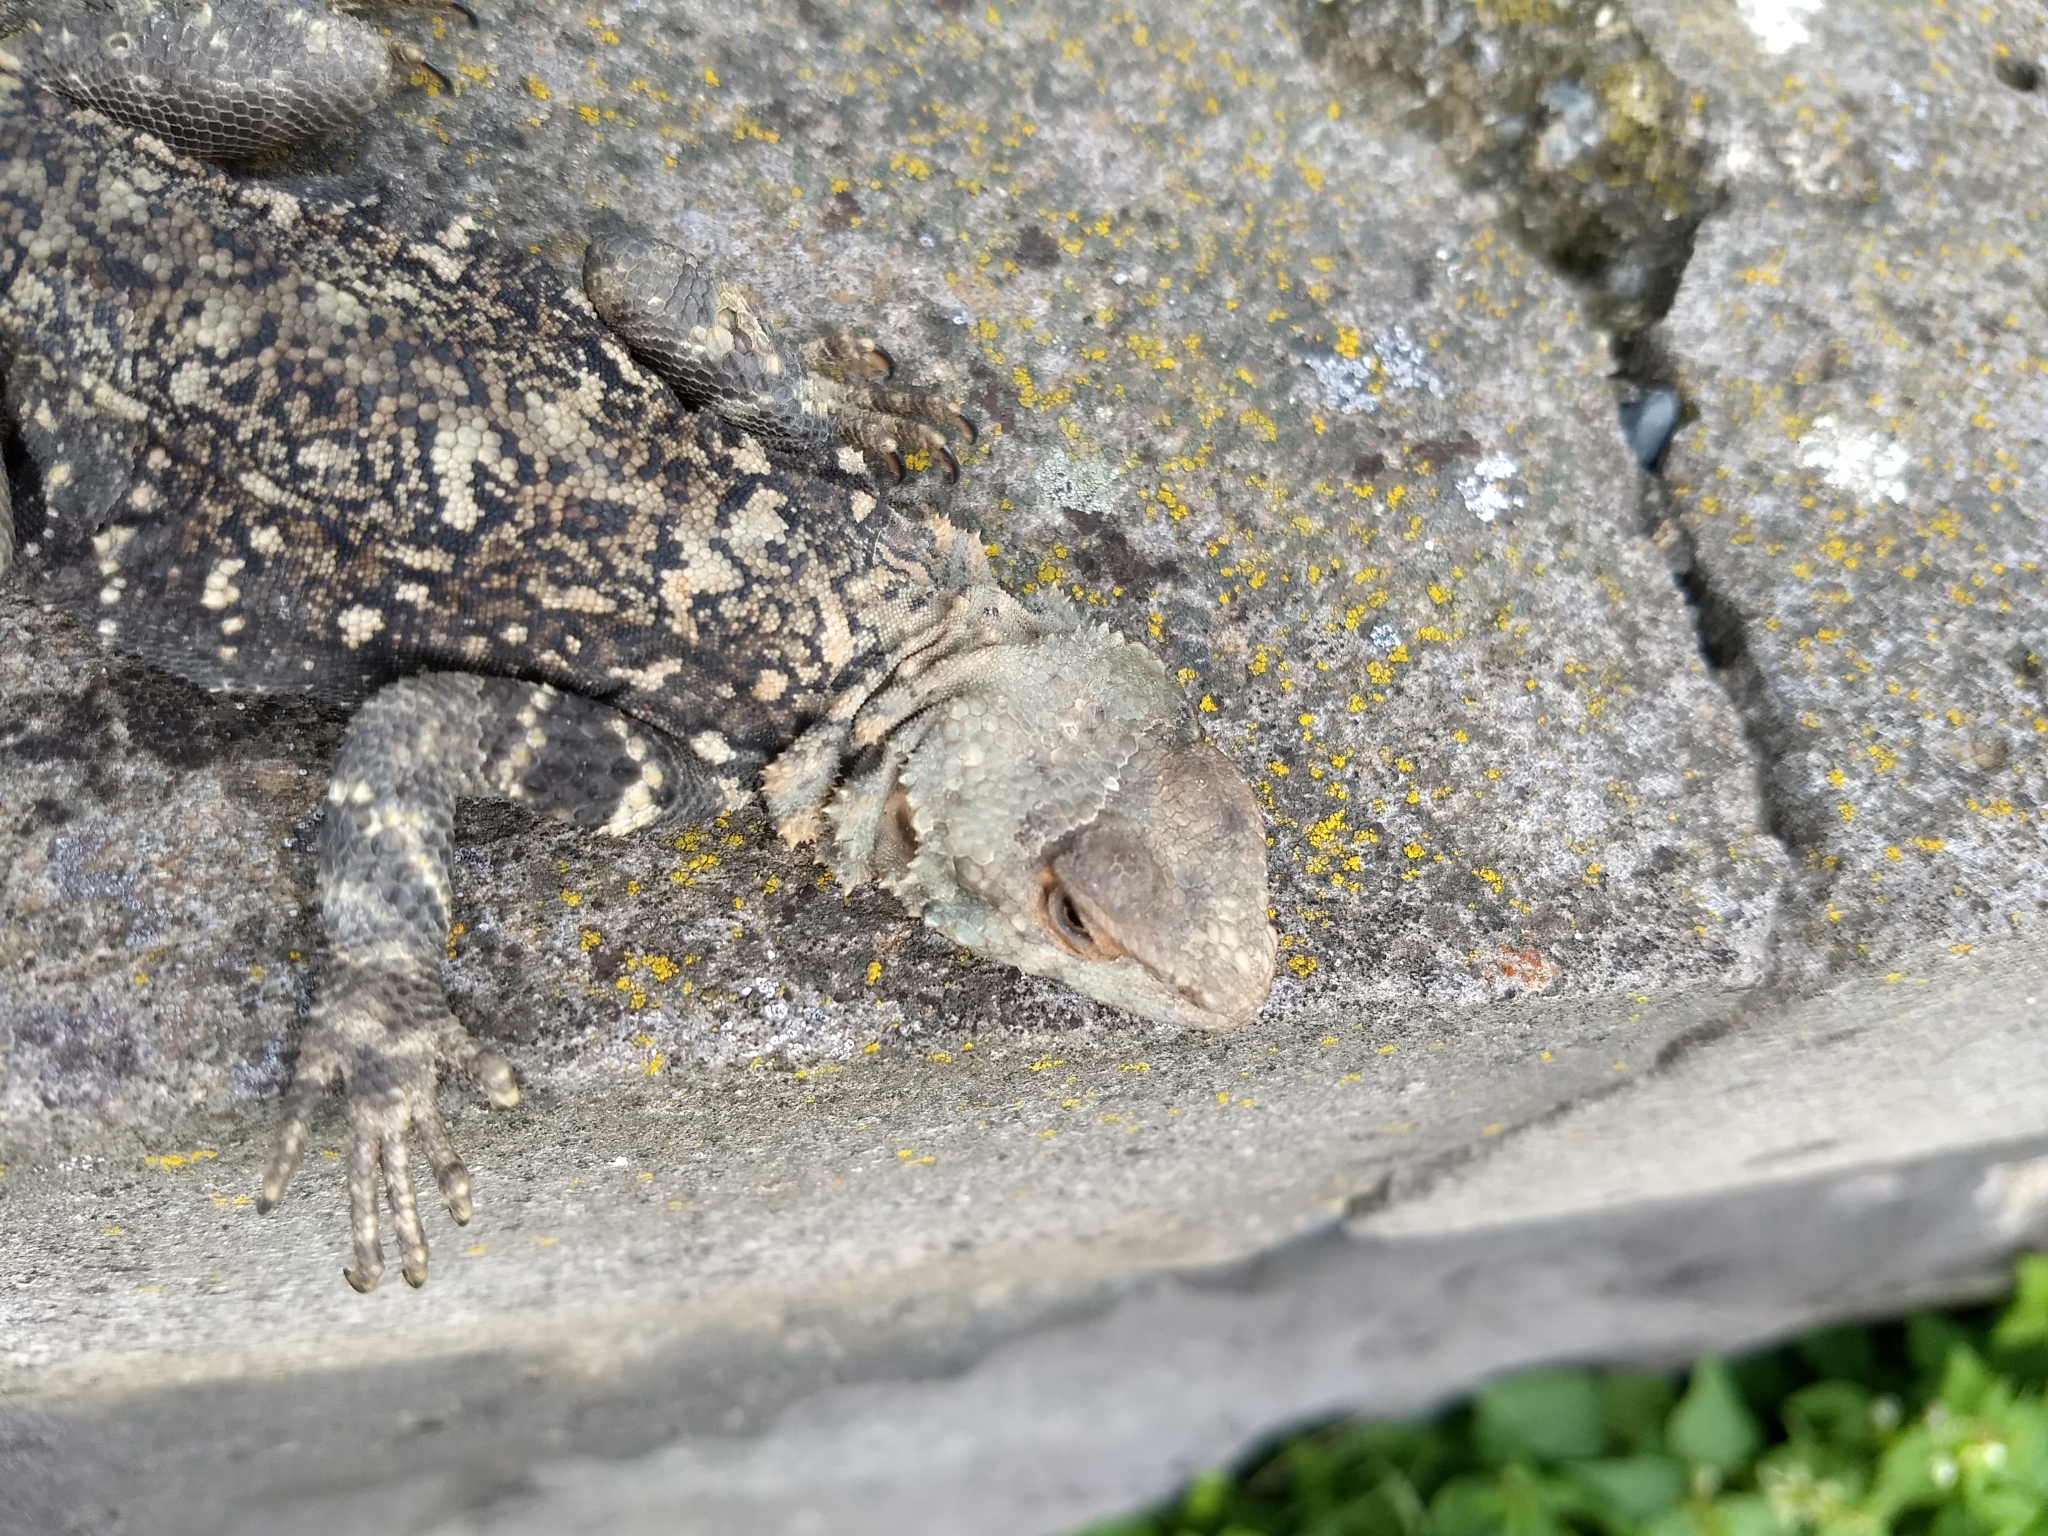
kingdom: Animalia
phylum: Chordata
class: Squamata
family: Agamidae
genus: Paralaudakia
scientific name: Paralaudakia caucasia
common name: Caucasian agama
